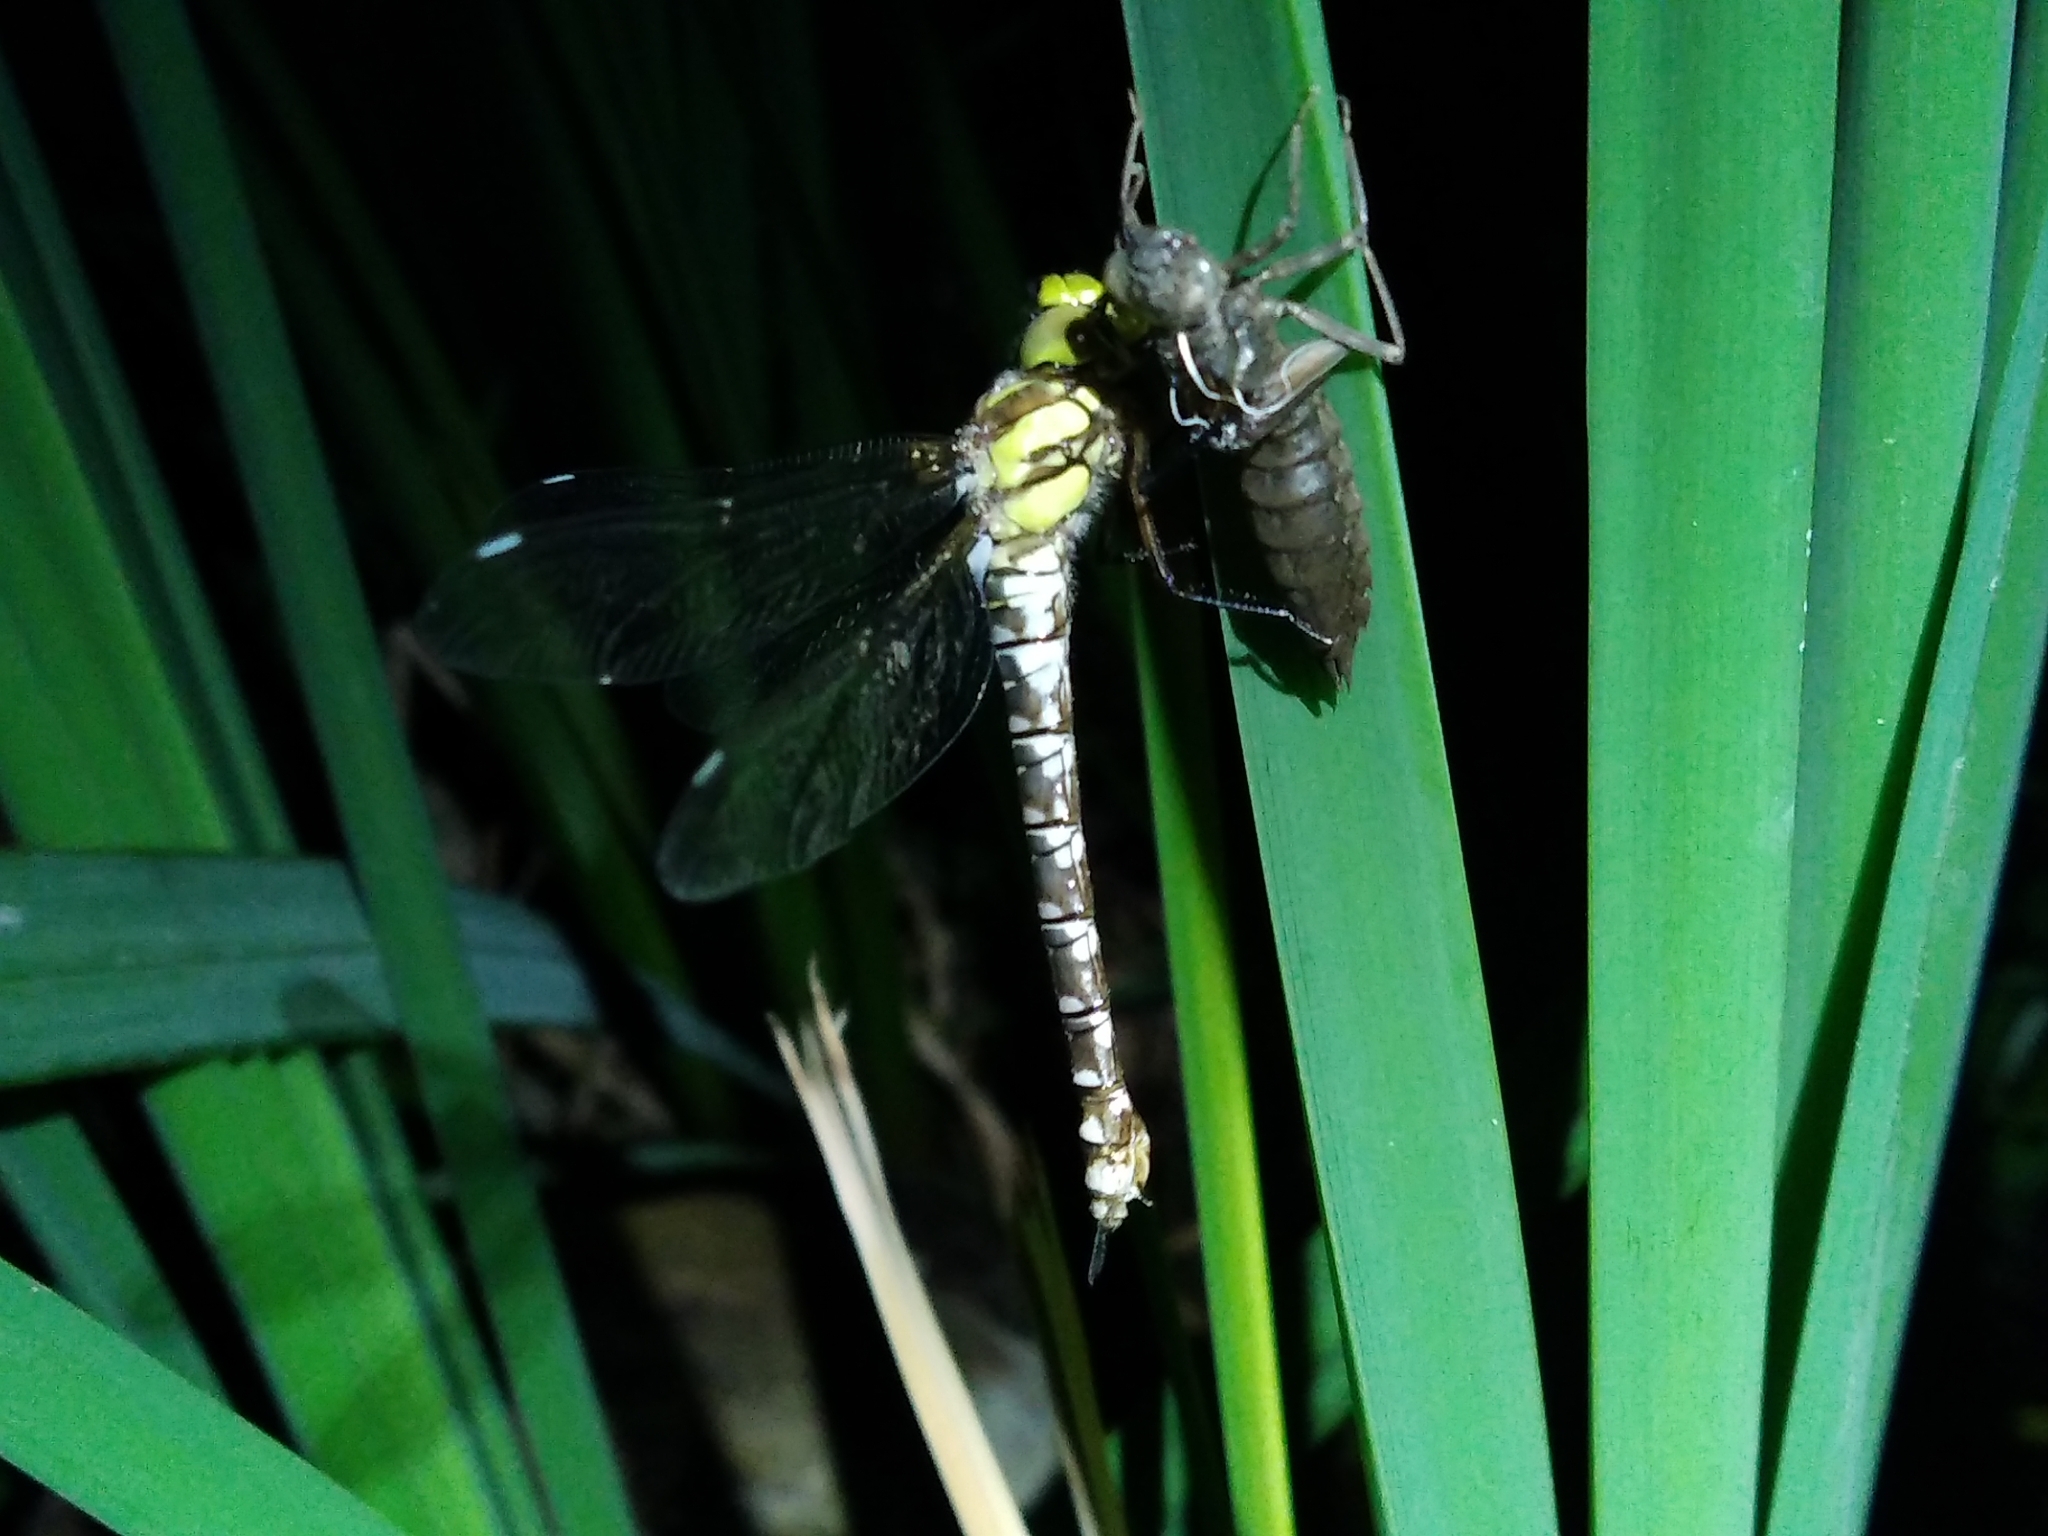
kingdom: Animalia
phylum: Arthropoda
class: Insecta
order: Odonata
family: Aeshnidae
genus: Aeshna
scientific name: Aeshna cyanea
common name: Southern hawker
